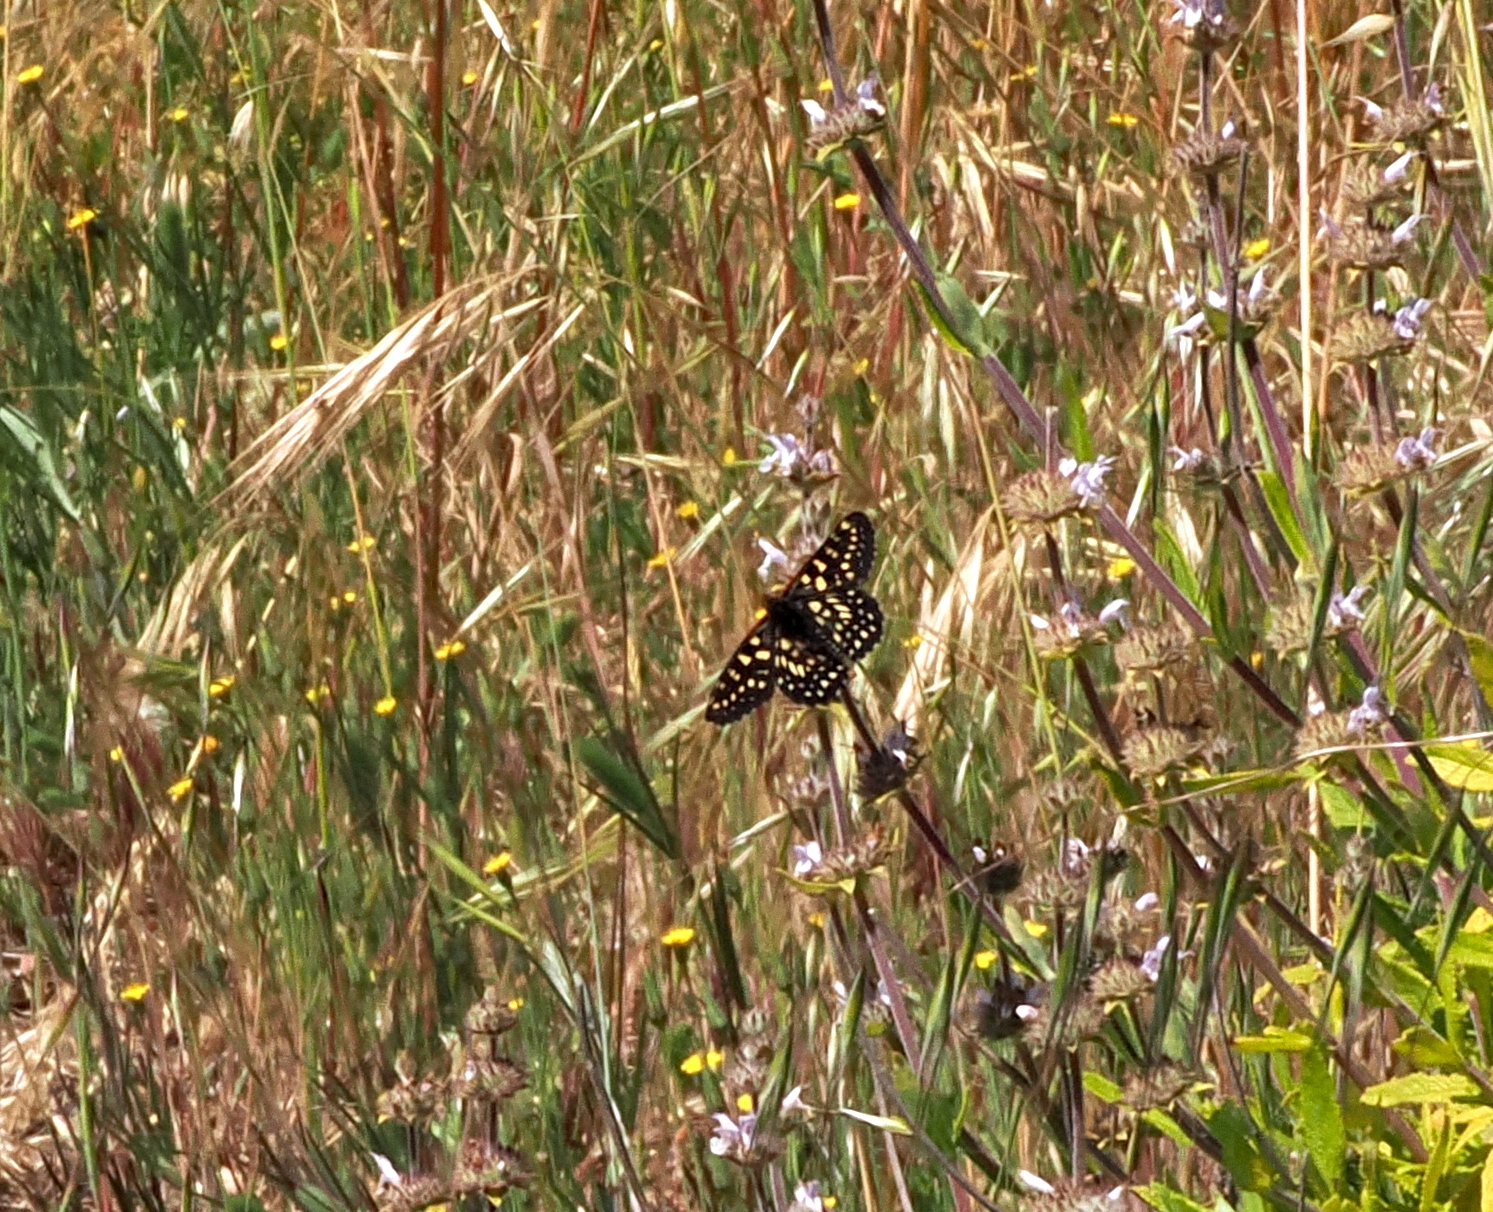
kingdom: Animalia
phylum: Arthropoda
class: Insecta
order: Lepidoptera
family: Nymphalidae
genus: Occidryas
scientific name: Occidryas chalcedona
